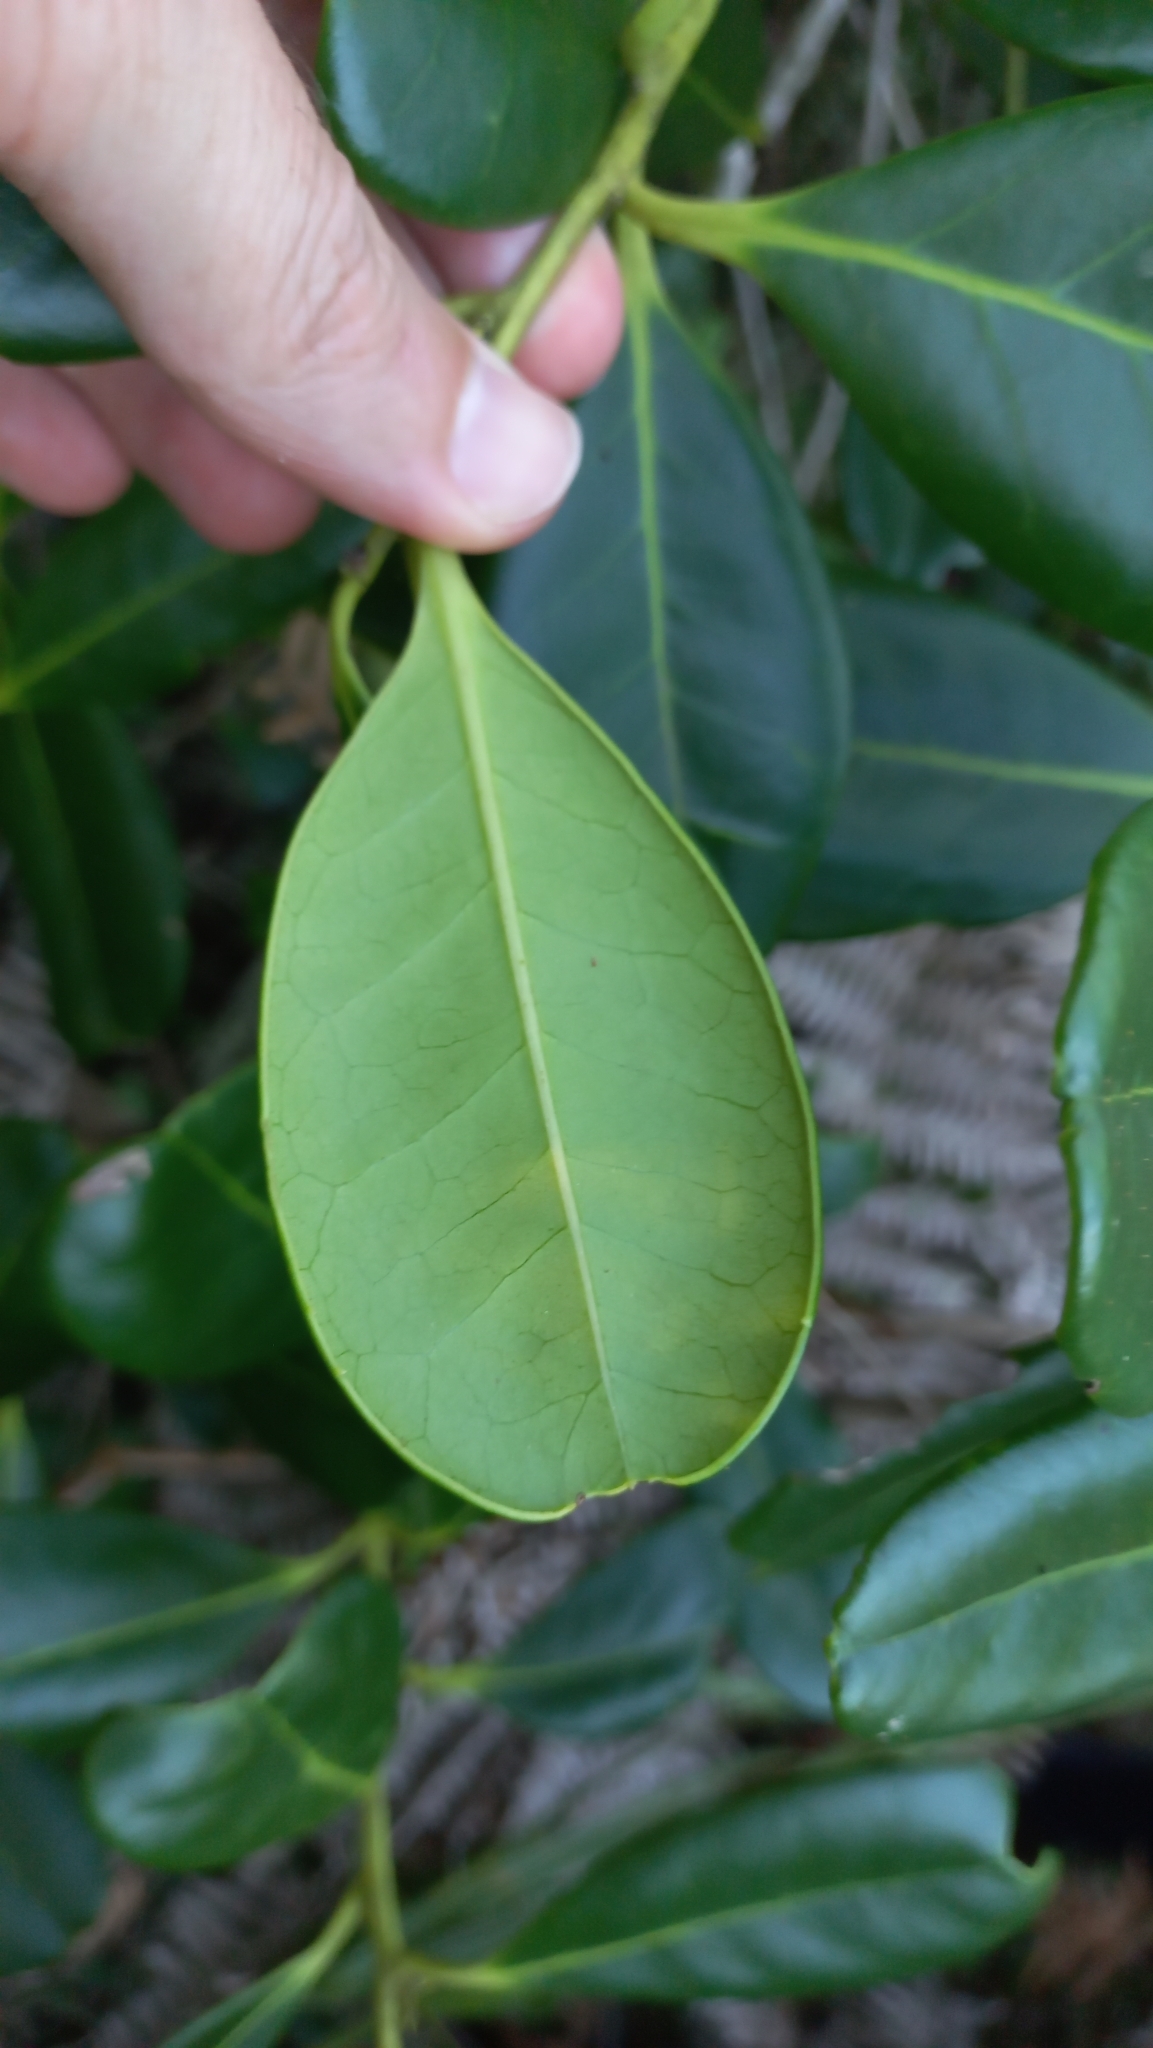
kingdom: Plantae
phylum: Tracheophyta
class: Magnoliopsida
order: Aquifoliales
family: Aquifoliaceae
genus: Ilex
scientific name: Ilex theezans
